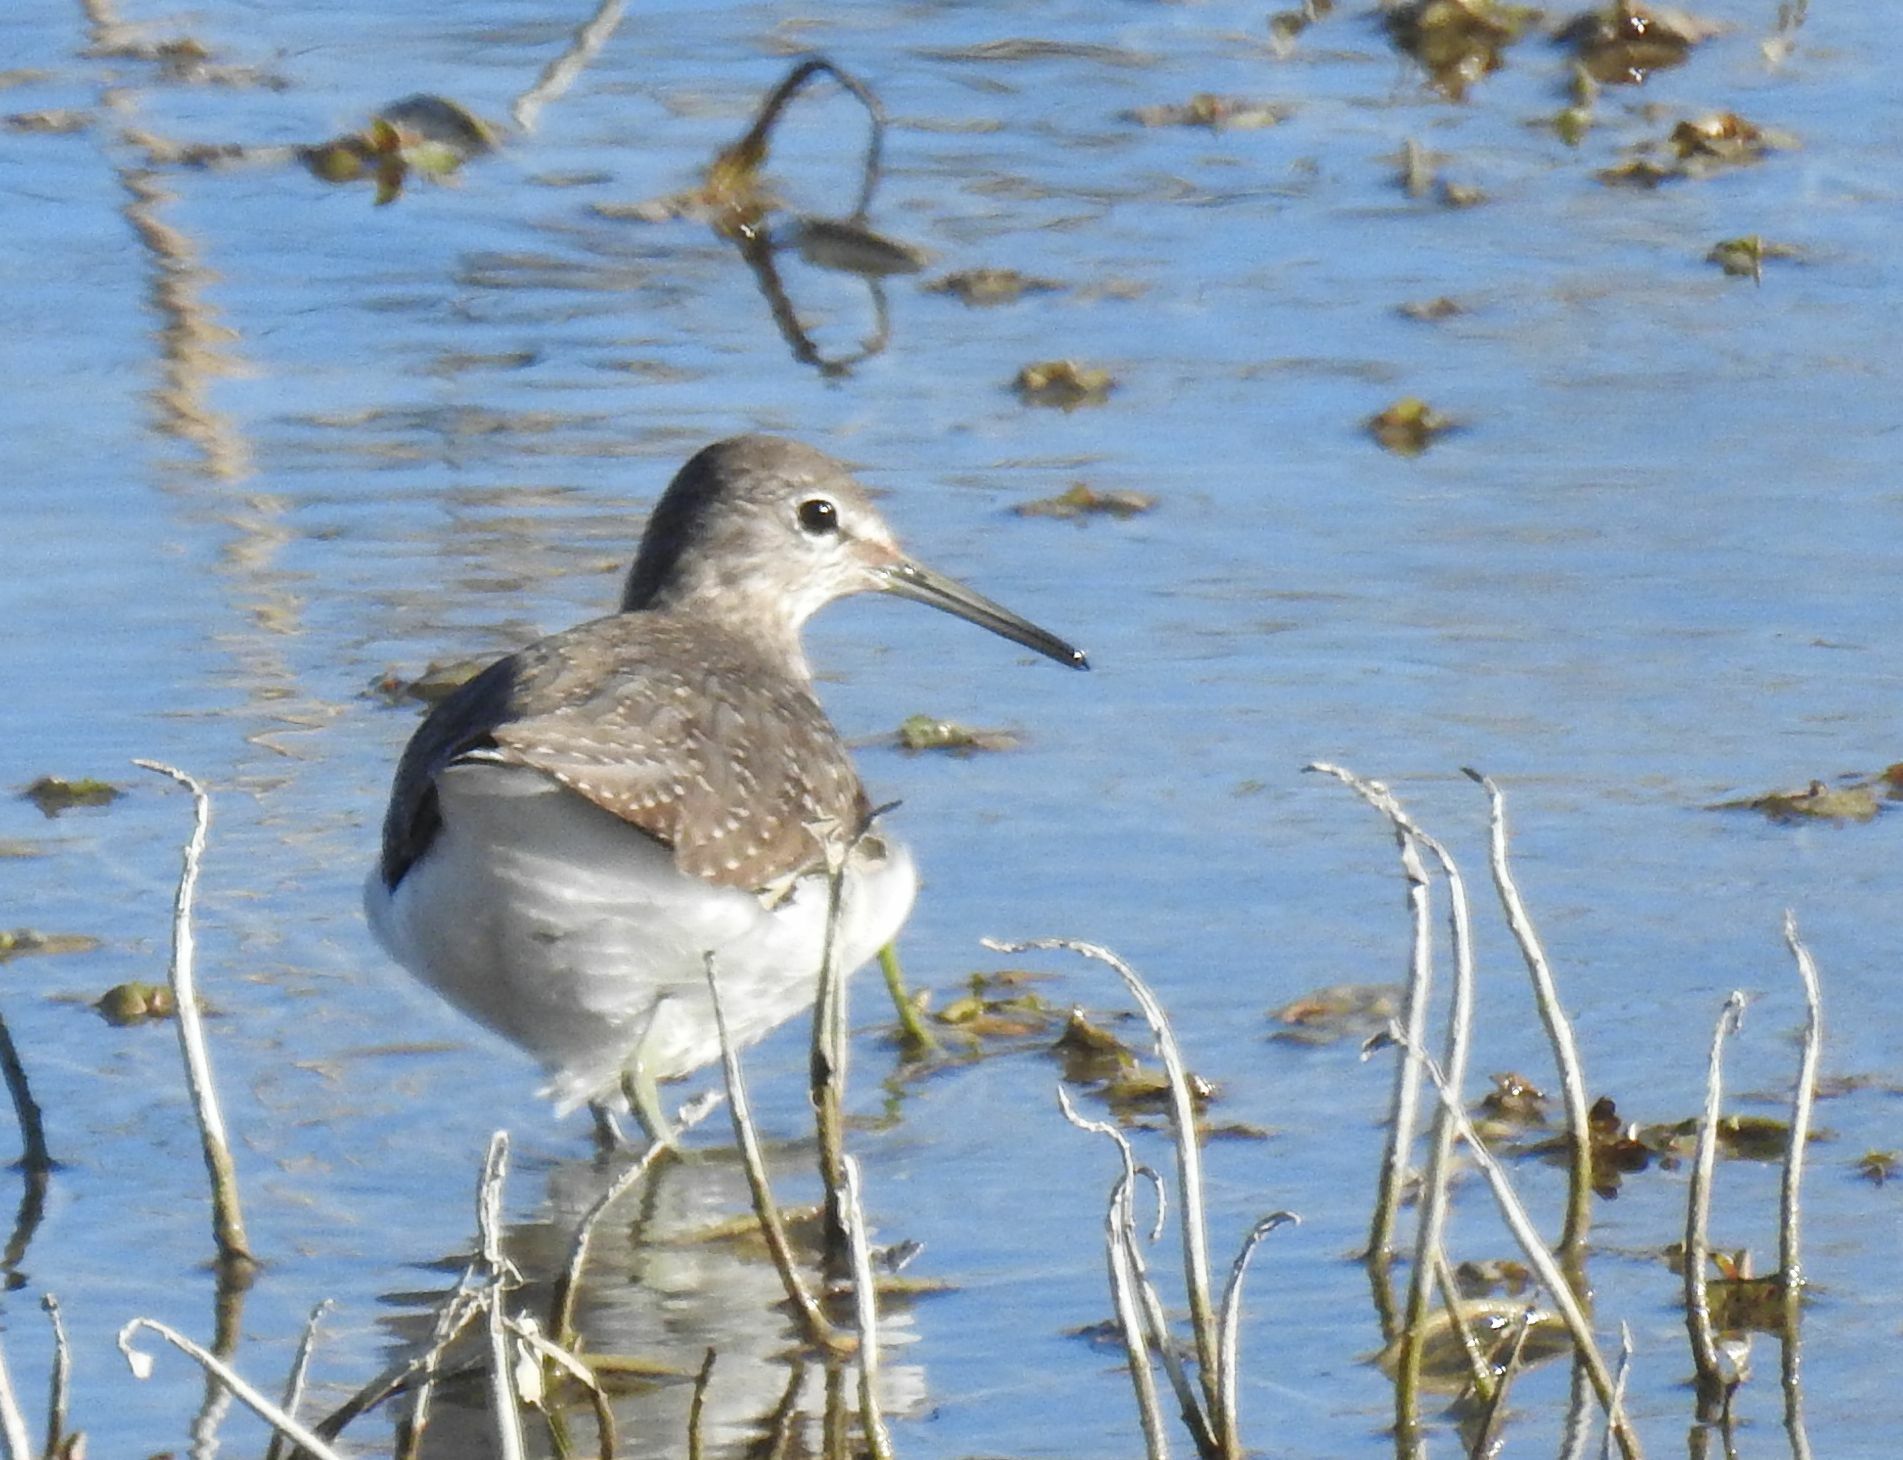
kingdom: Animalia
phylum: Chordata
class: Aves
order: Charadriiformes
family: Scolopacidae
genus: Tringa
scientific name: Tringa ochropus
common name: Green sandpiper
